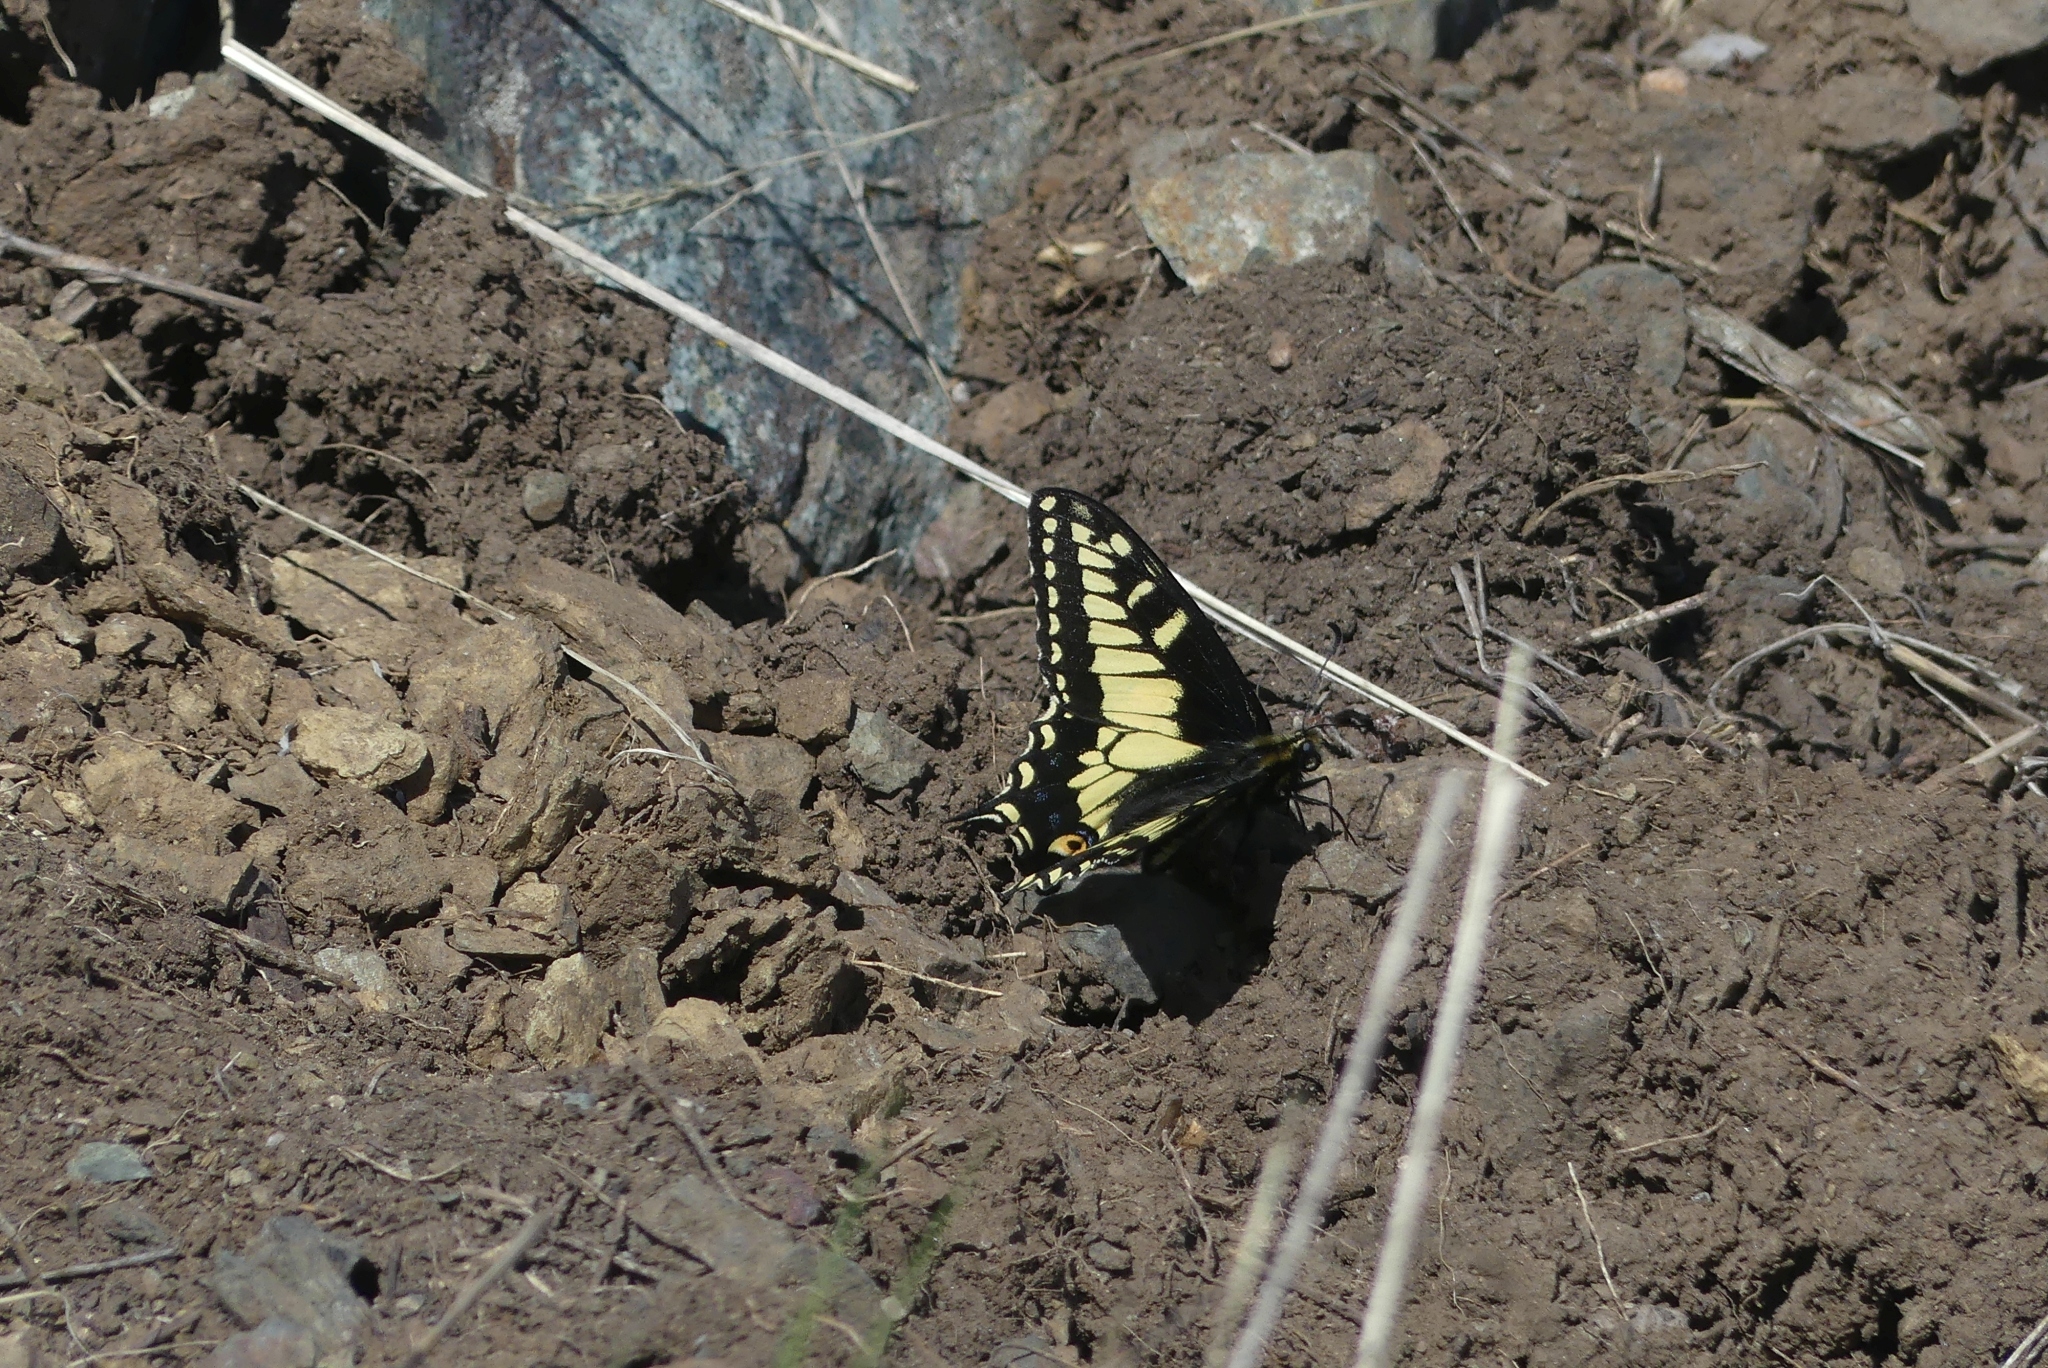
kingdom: Animalia
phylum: Arthropoda
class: Insecta
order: Lepidoptera
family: Papilionidae
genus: Papilio
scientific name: Papilio zelicaon
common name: Anise swallowtail
